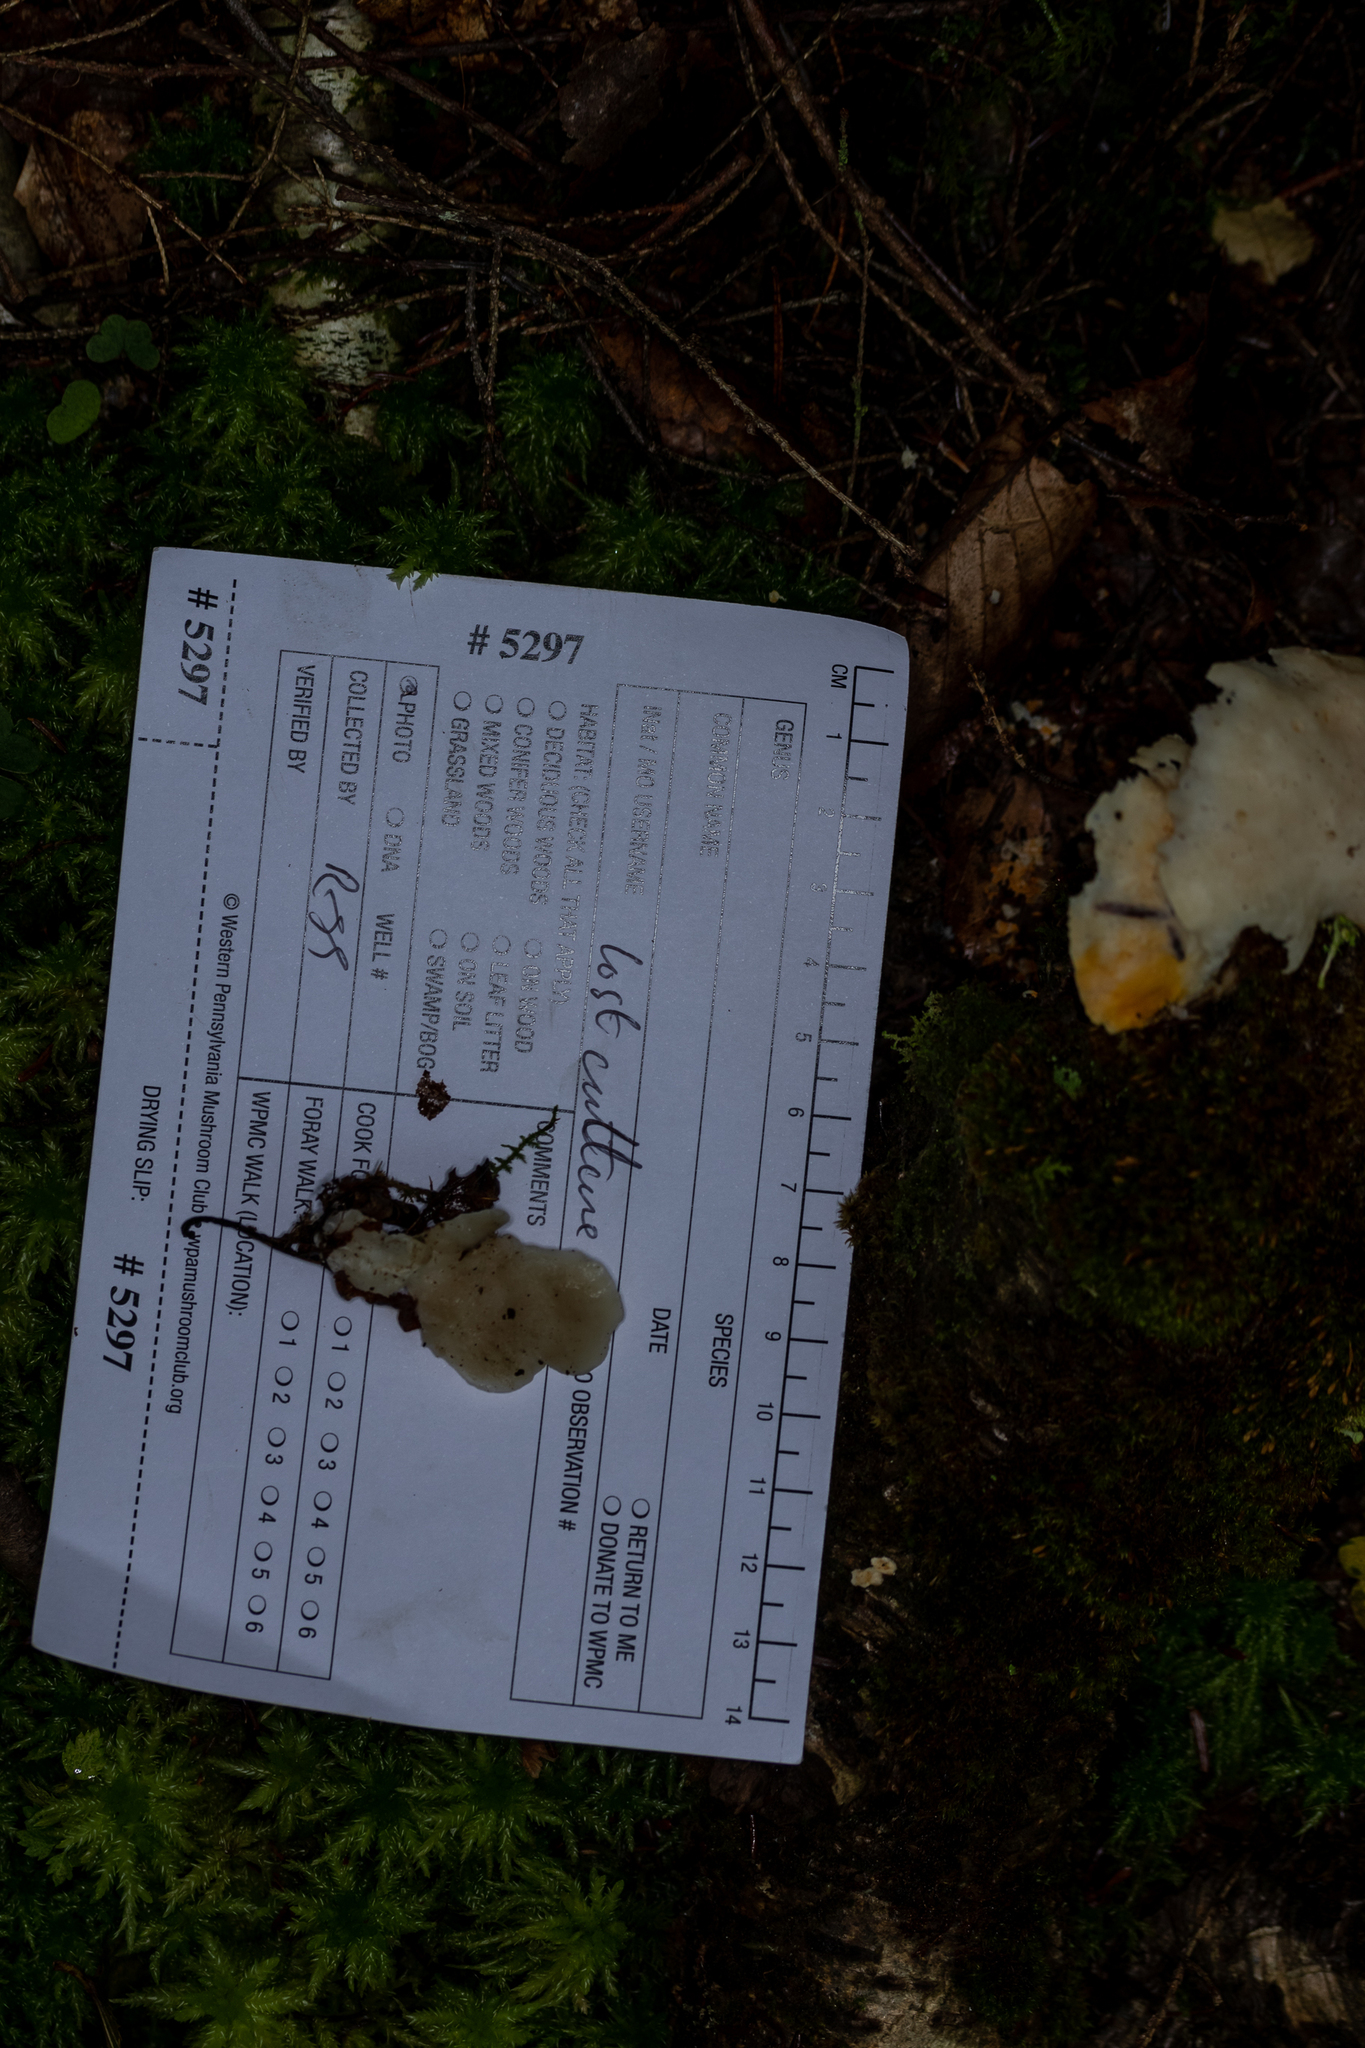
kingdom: Fungi
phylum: Basidiomycota
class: Agaricomycetes
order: Polyporales
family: Incrustoporiaceae
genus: Tyromyces
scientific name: Tyromyces chioneus
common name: White cheese polypore
